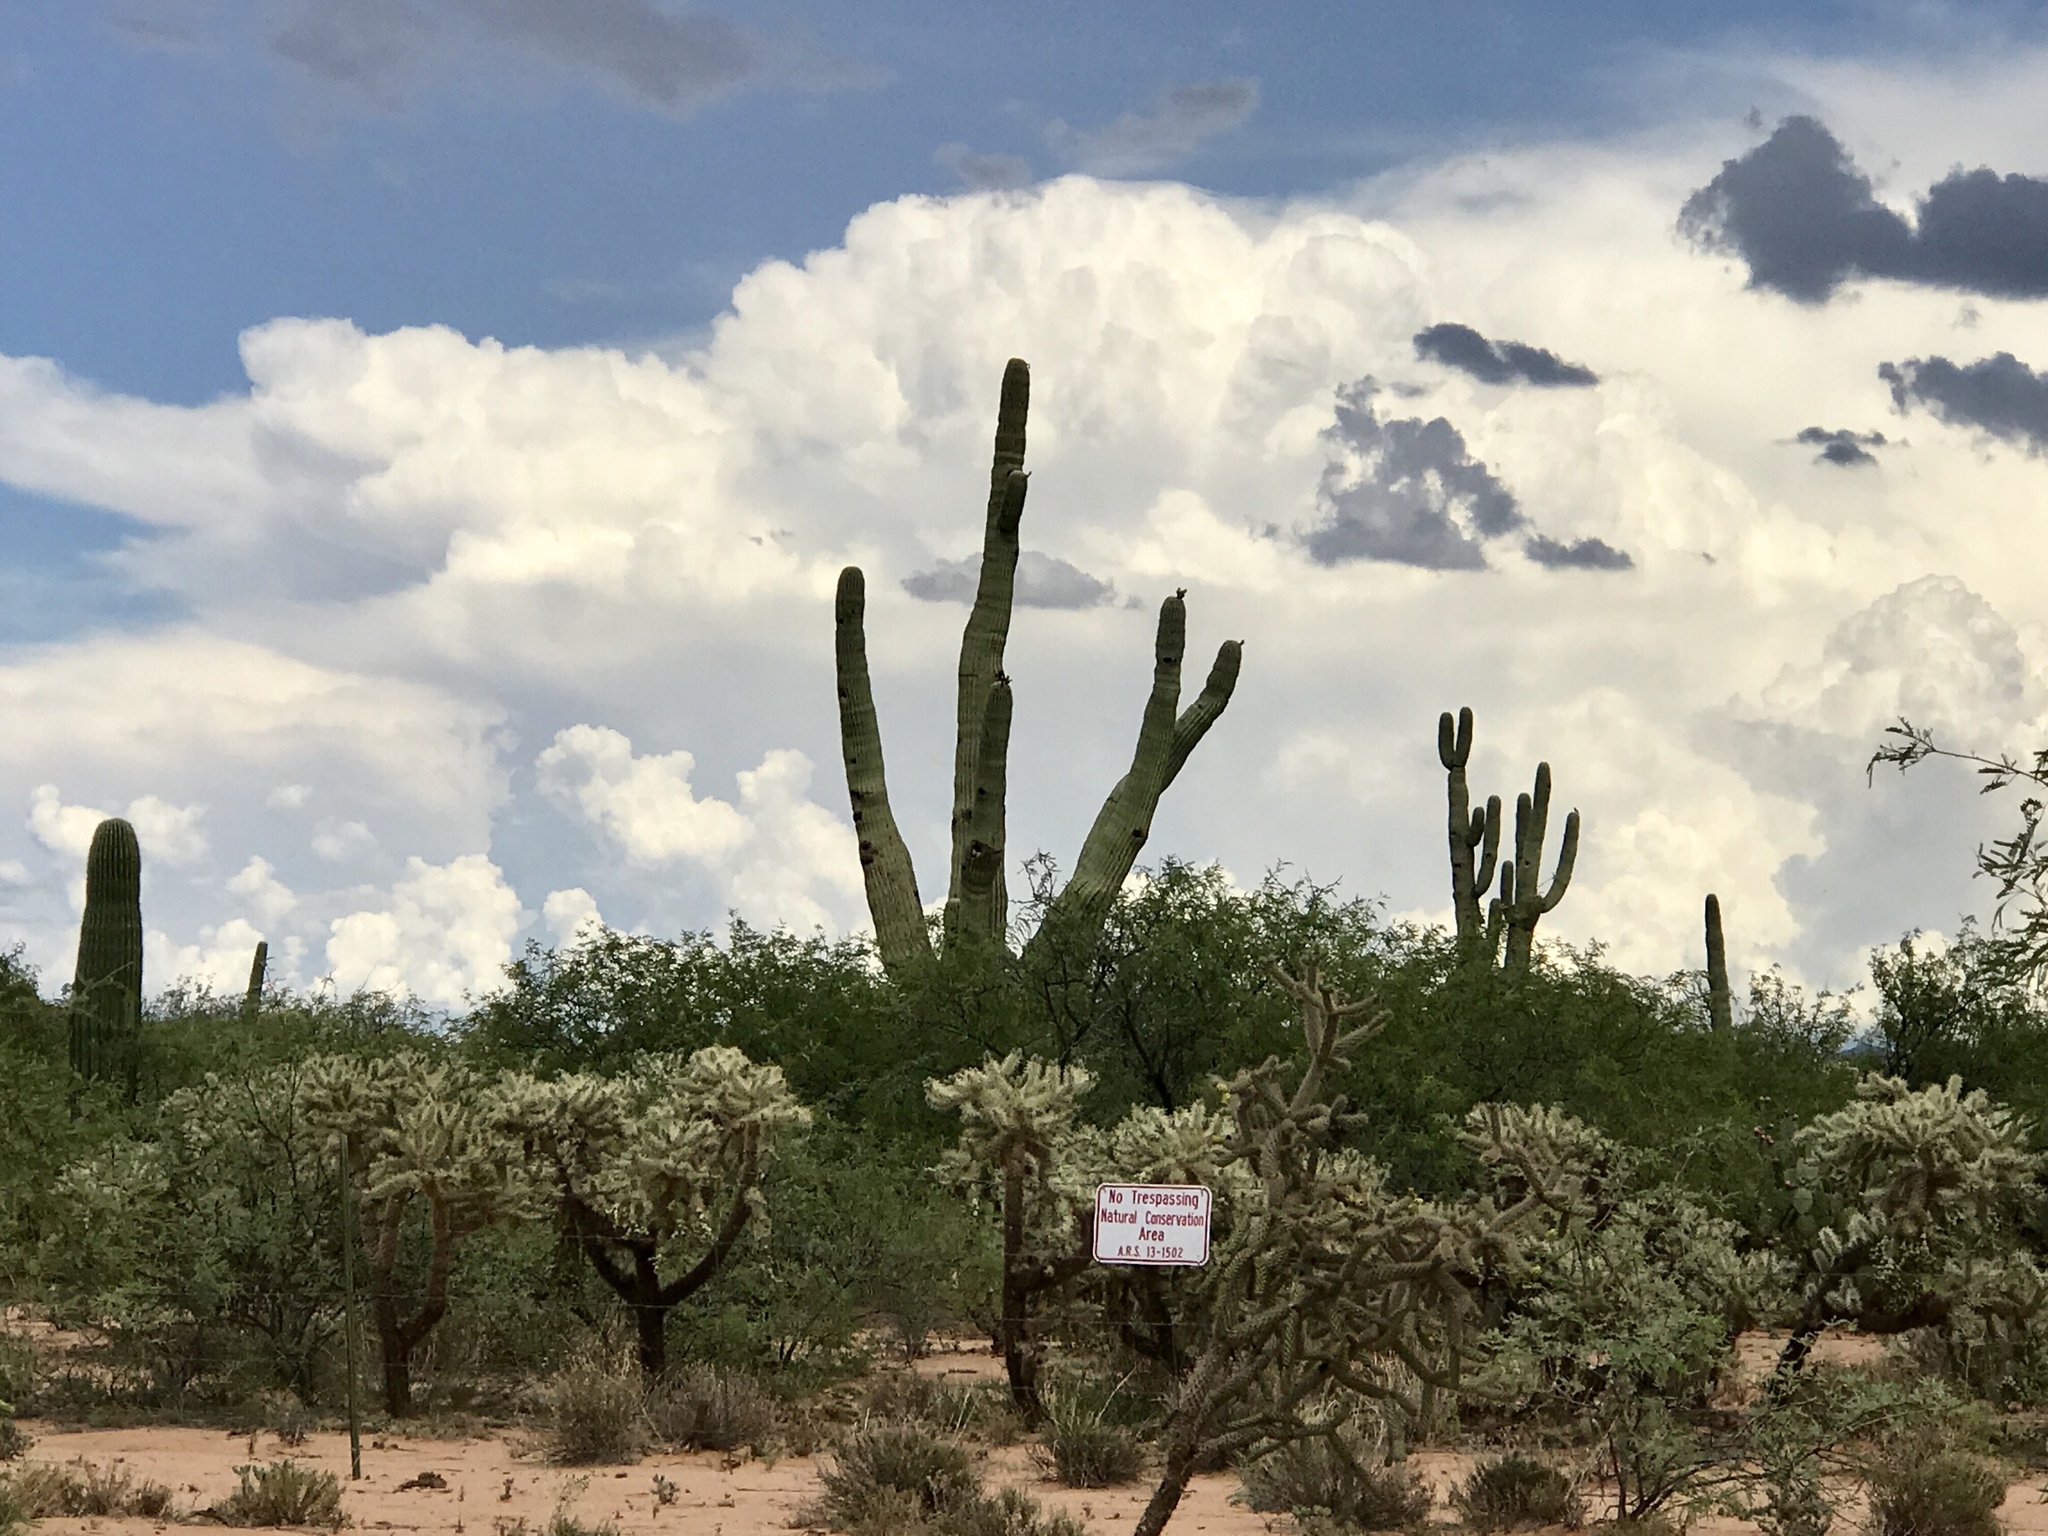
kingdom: Plantae
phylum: Tracheophyta
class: Magnoliopsida
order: Caryophyllales
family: Cactaceae
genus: Carnegiea
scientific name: Carnegiea gigantea
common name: Saguaro
